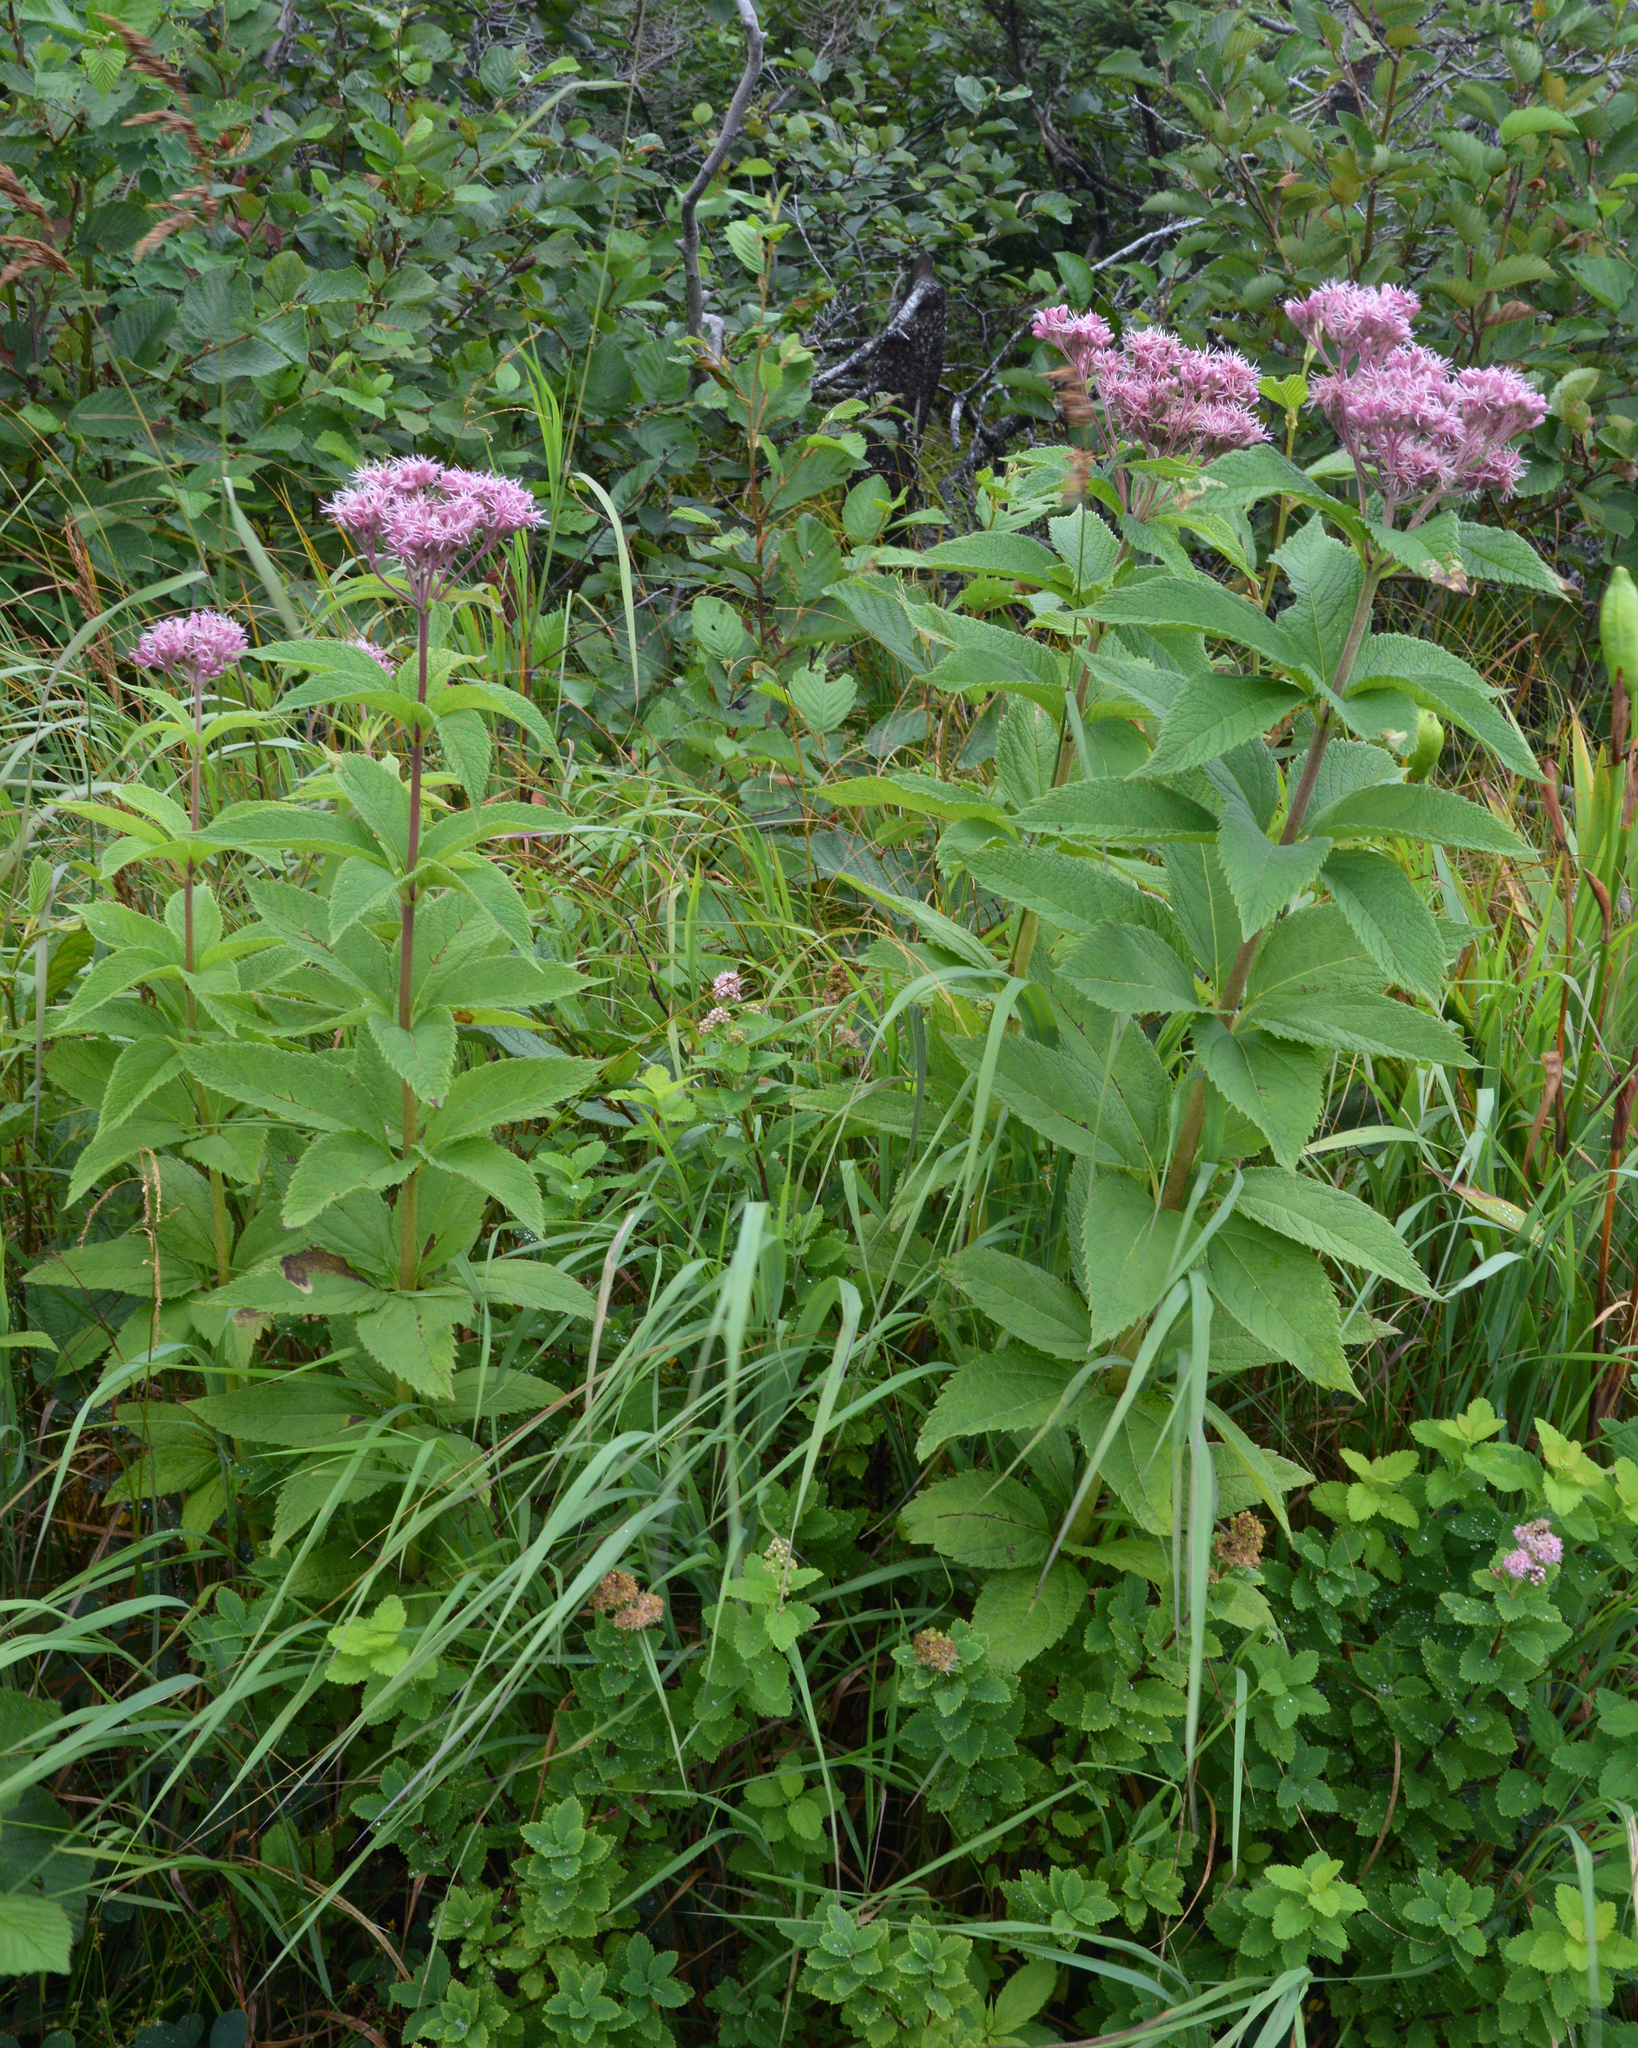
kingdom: Plantae
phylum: Tracheophyta
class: Magnoliopsida
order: Asterales
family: Asteraceae
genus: Eutrochium
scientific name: Eutrochium maculatum
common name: Spotted joe pye weed
